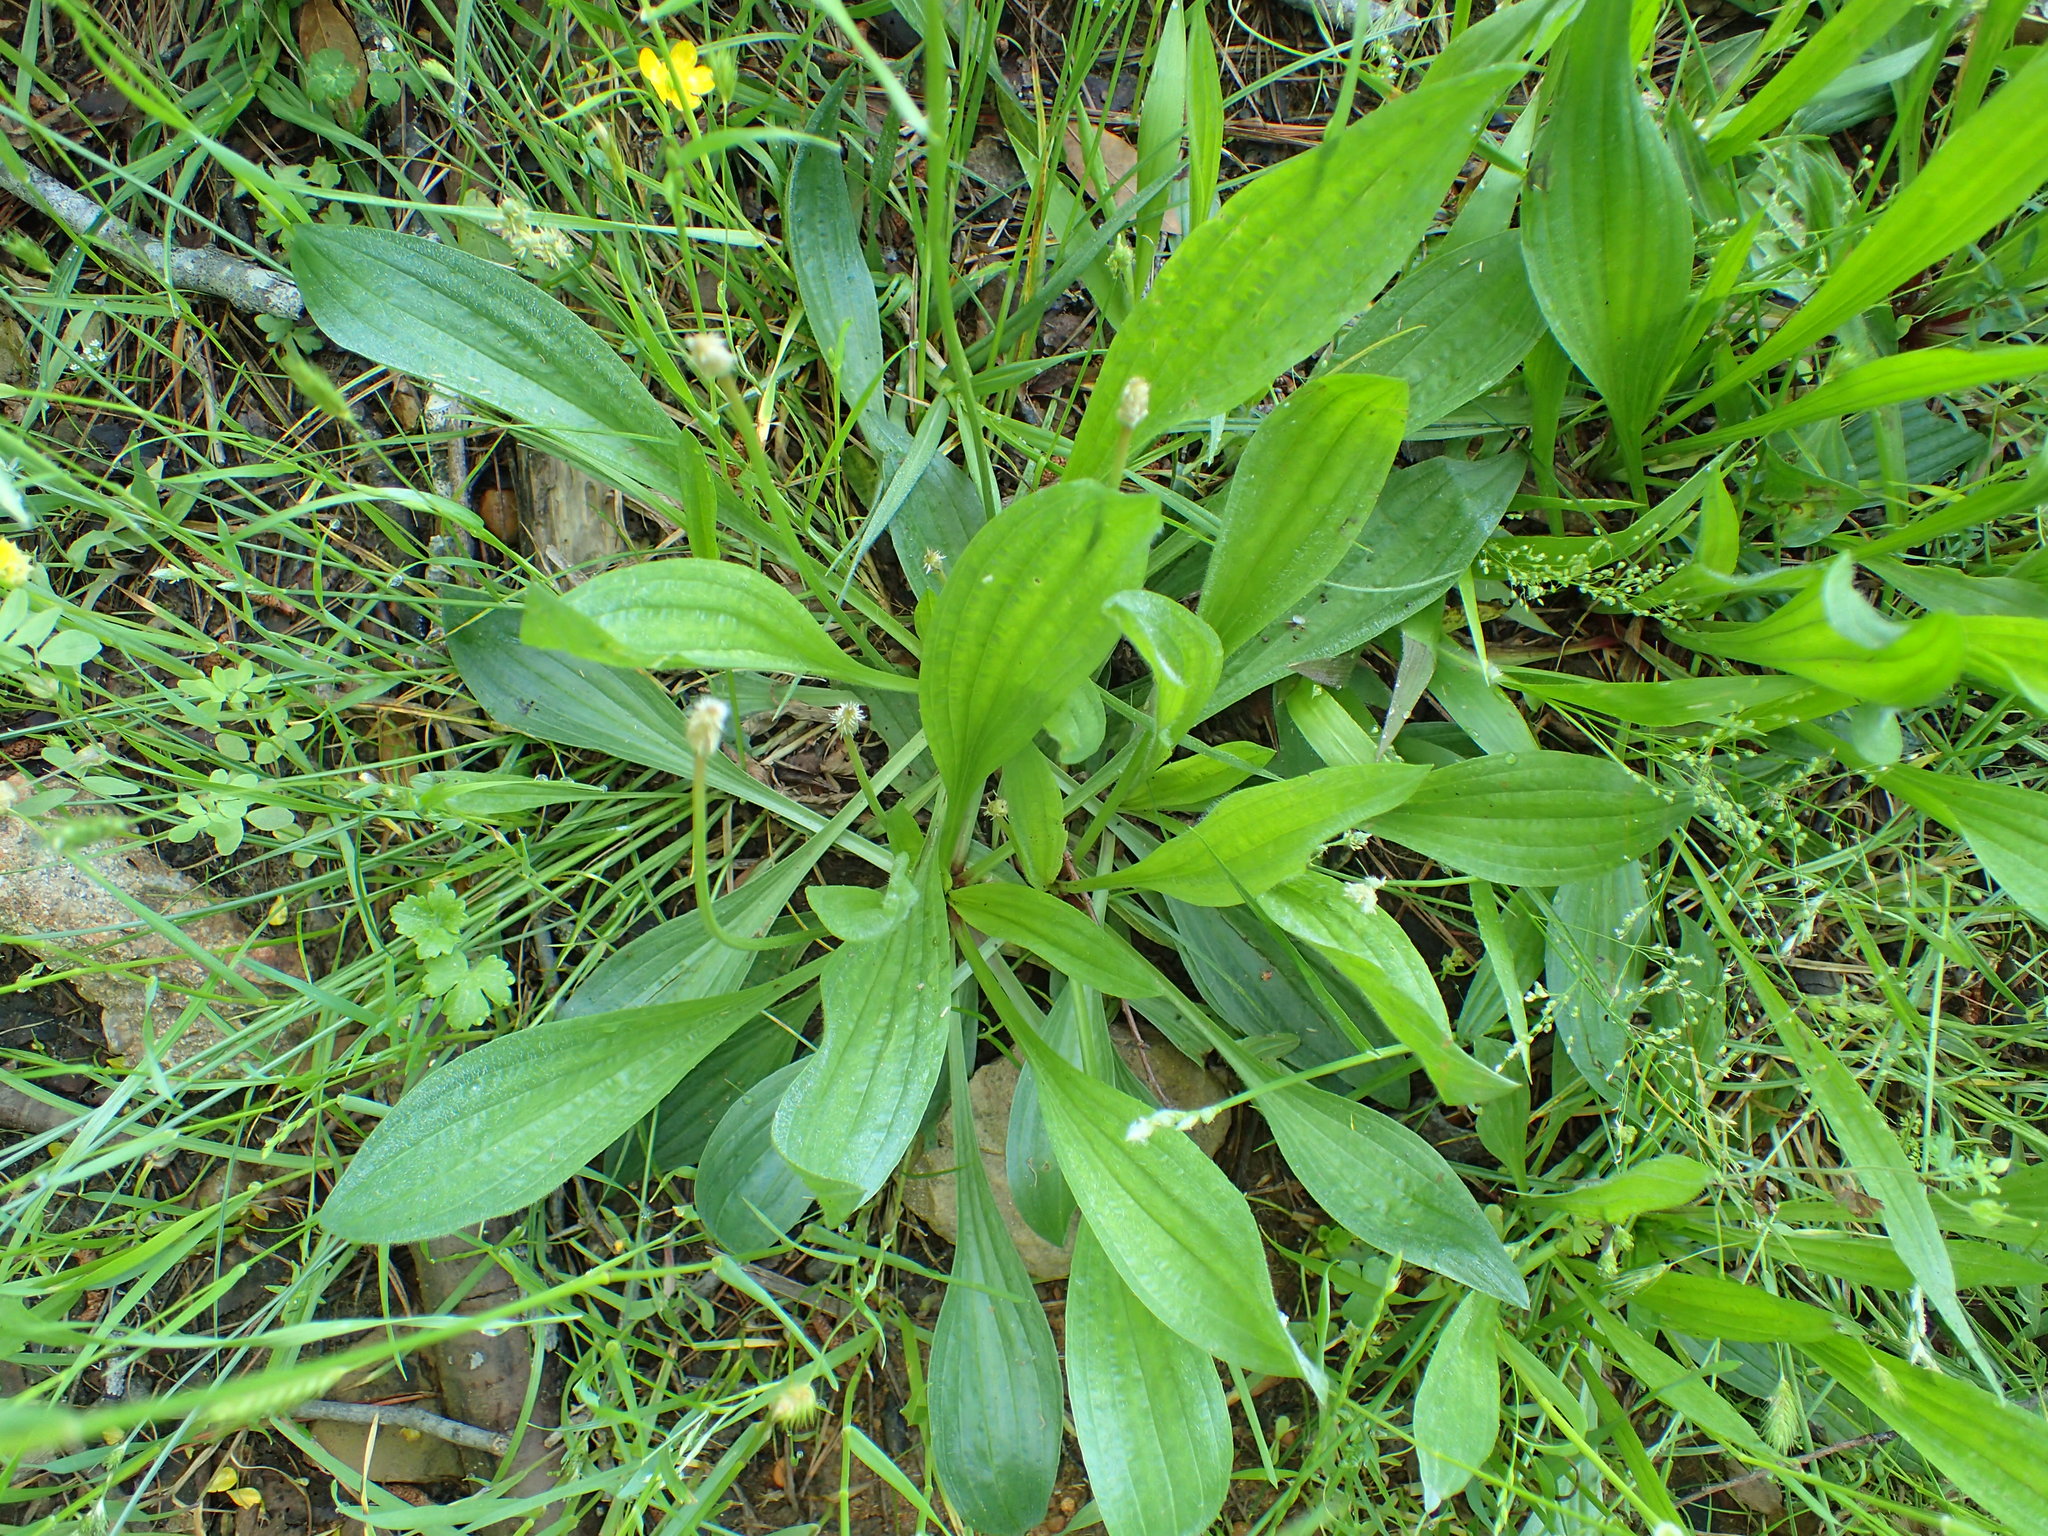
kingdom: Plantae
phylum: Tracheophyta
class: Magnoliopsida
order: Lamiales
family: Plantaginaceae
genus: Plantago
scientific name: Plantago lanceolata
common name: Ribwort plantain
